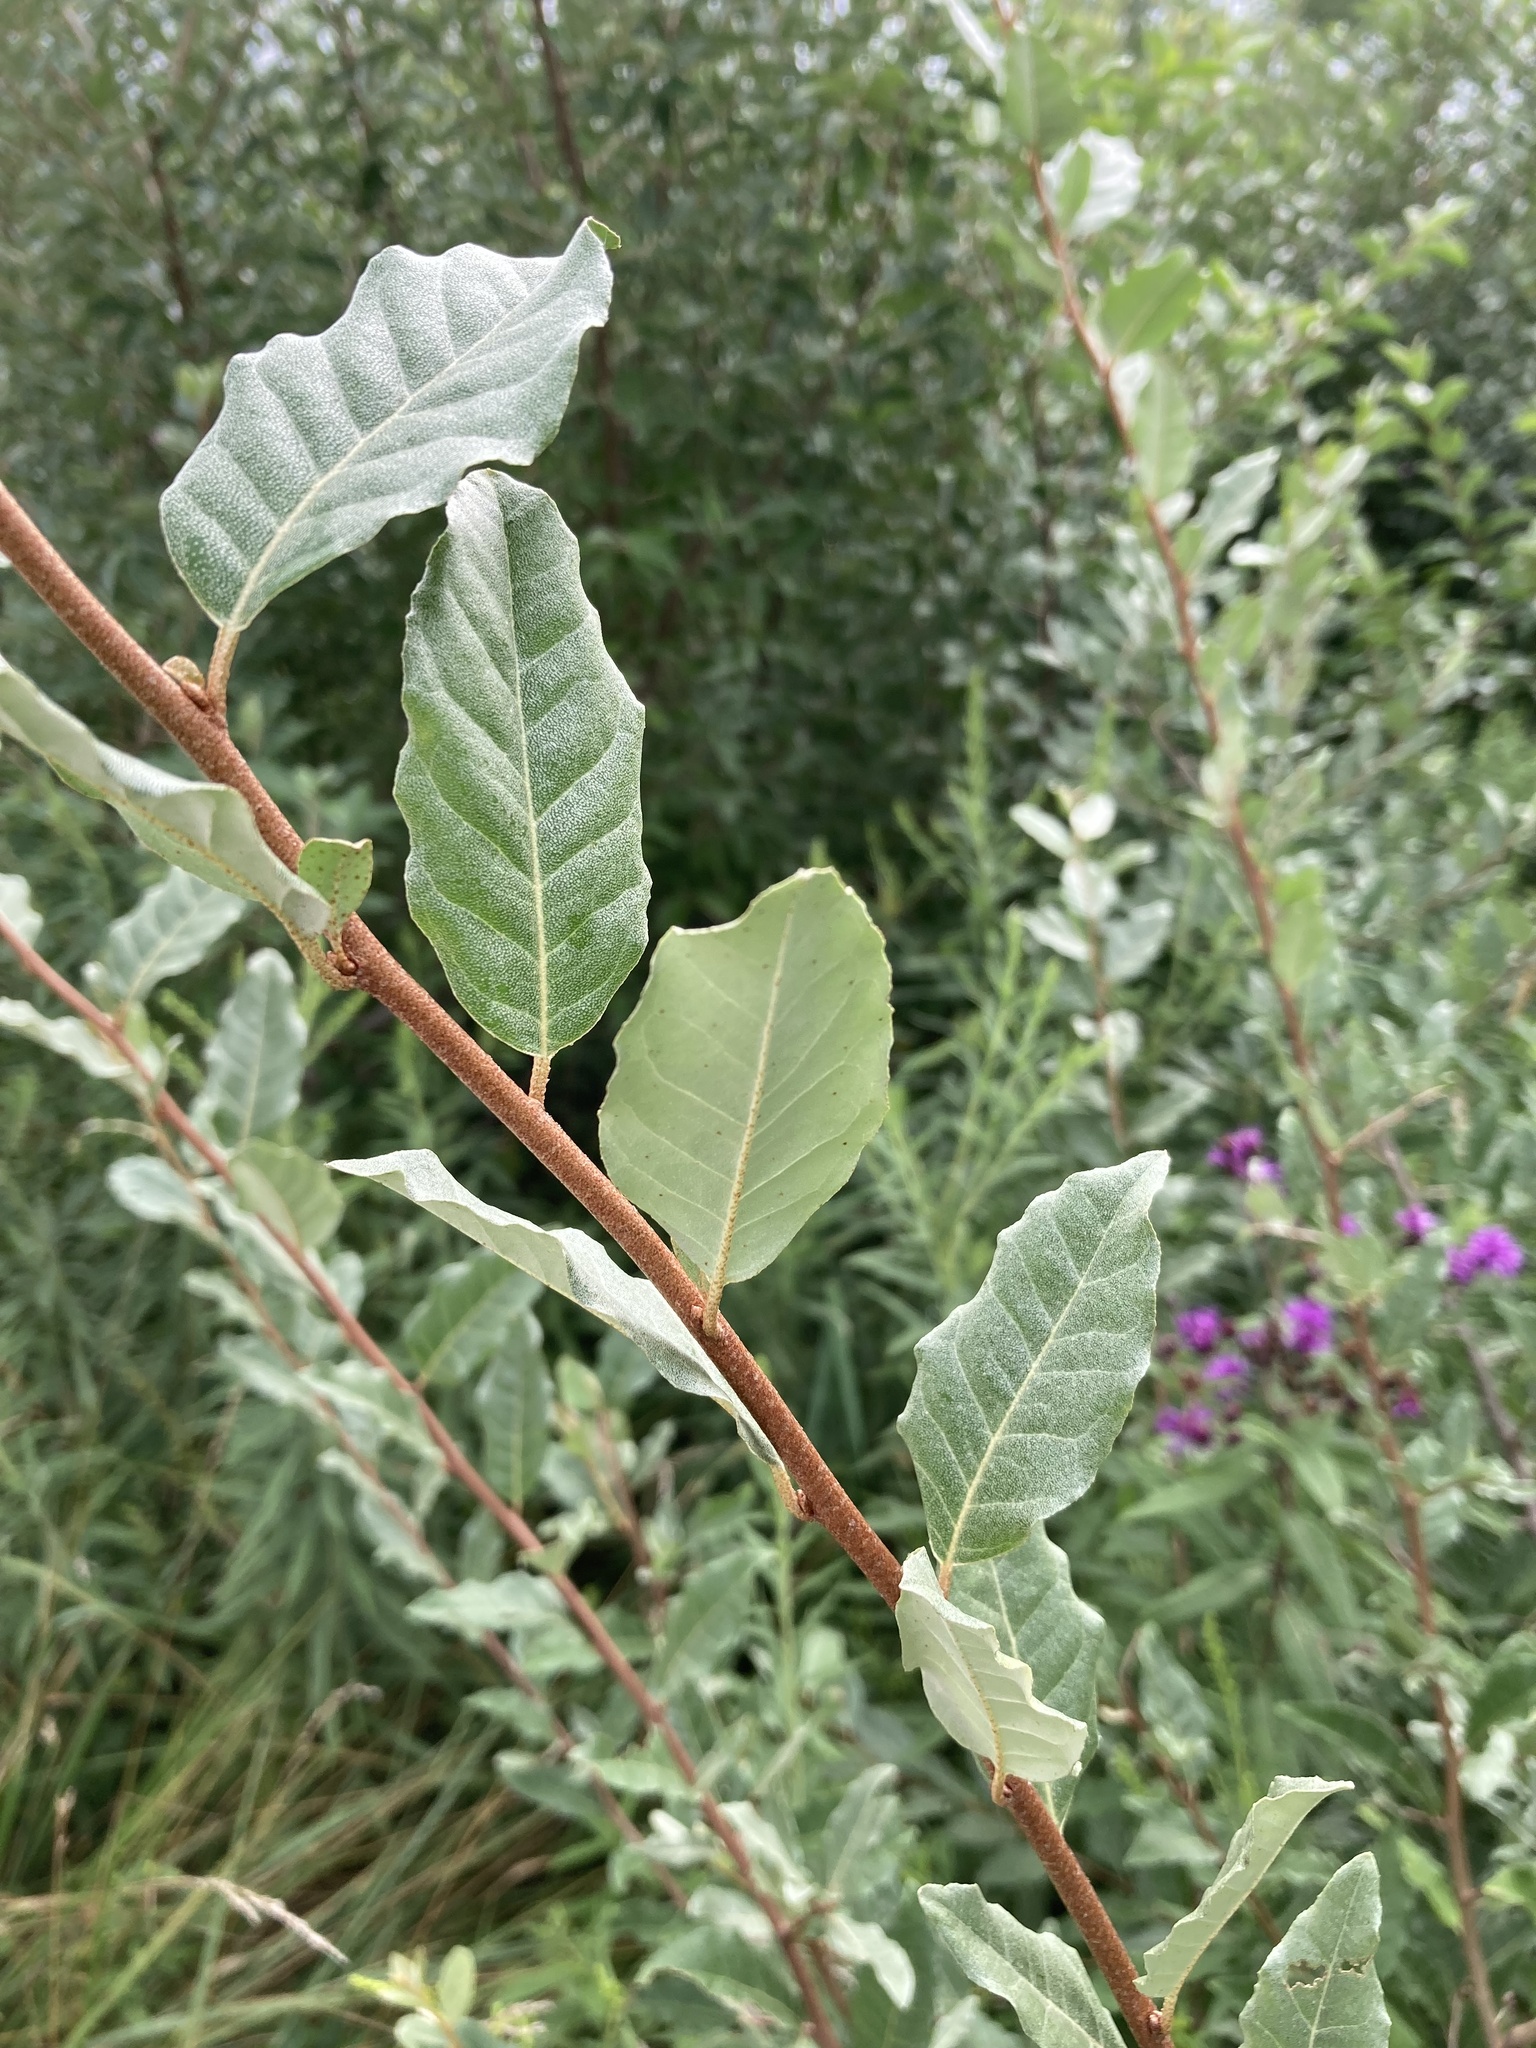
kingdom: Plantae
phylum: Tracheophyta
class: Magnoliopsida
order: Rosales
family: Elaeagnaceae
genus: Elaeagnus
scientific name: Elaeagnus umbellata
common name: Autumn olive
